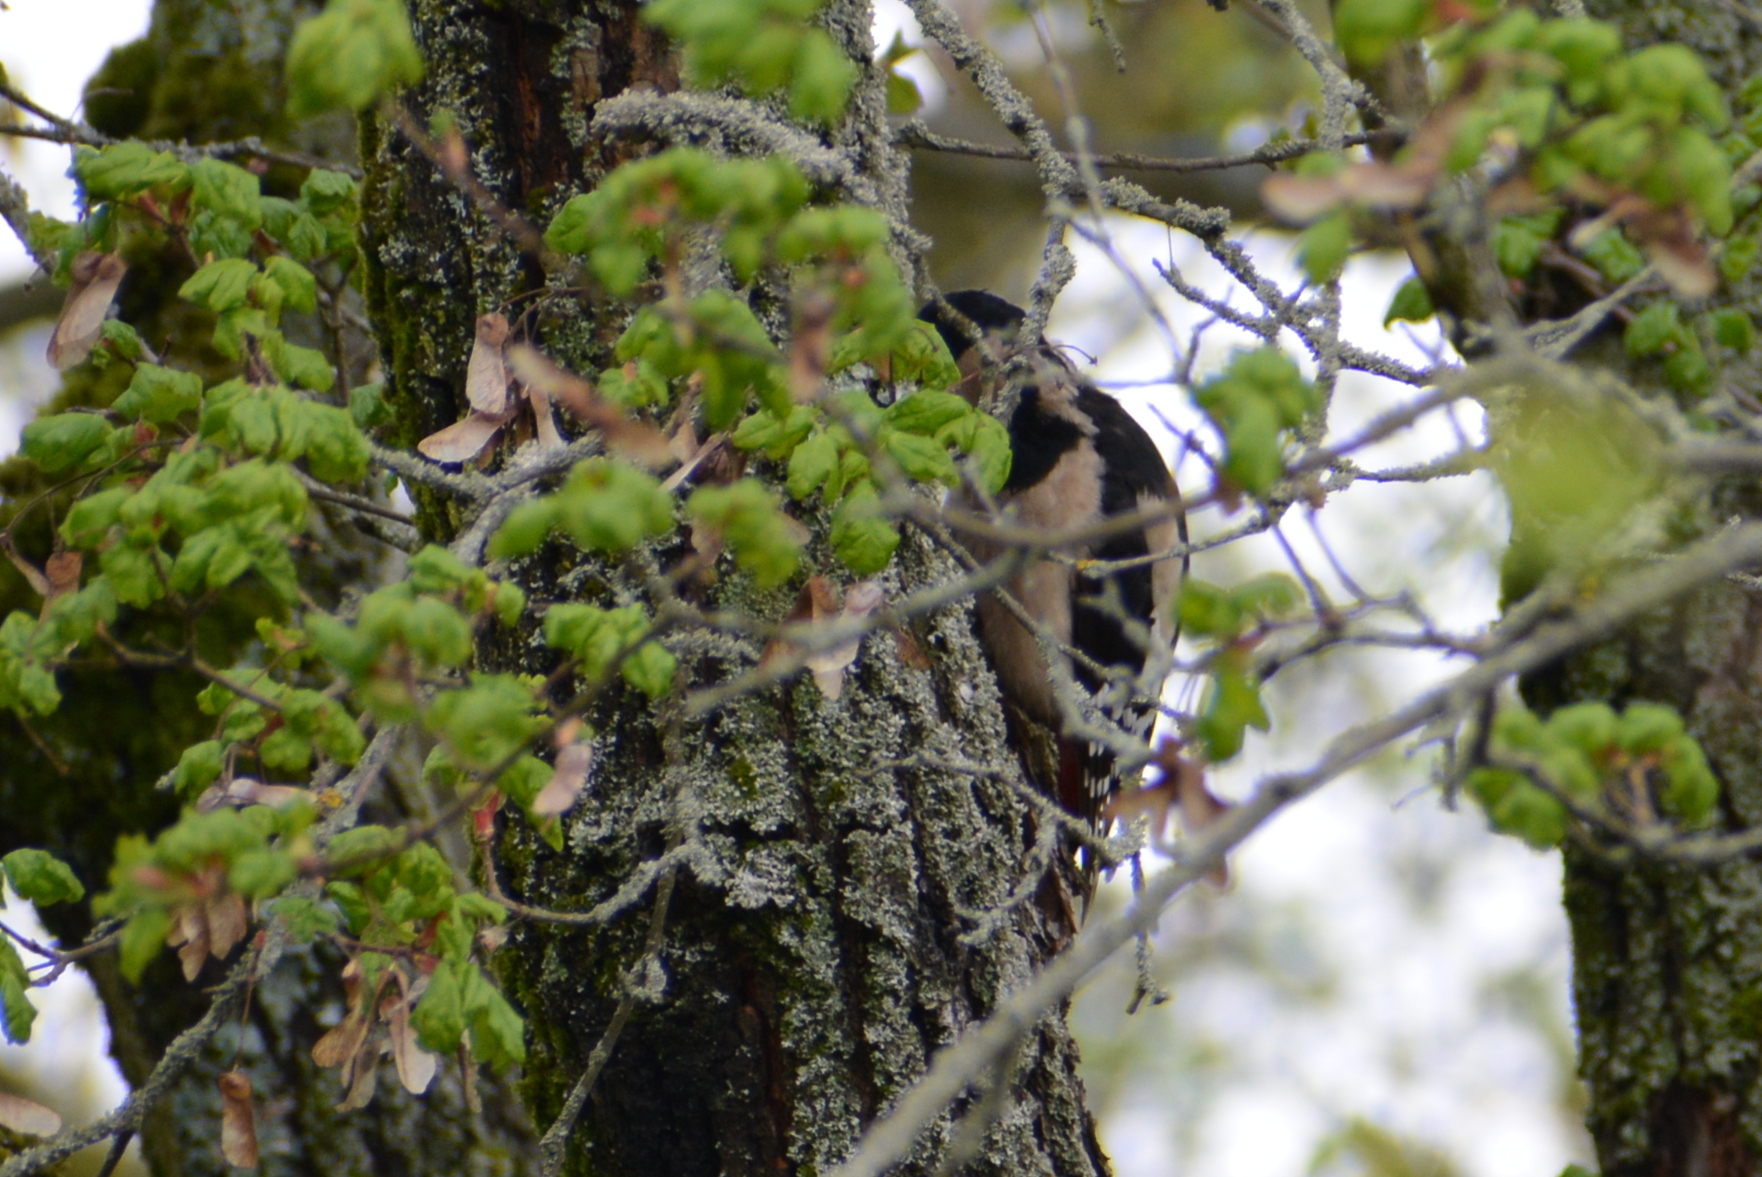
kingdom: Animalia
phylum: Chordata
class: Aves
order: Piciformes
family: Picidae
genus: Dendrocopos
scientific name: Dendrocopos major
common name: Great spotted woodpecker
